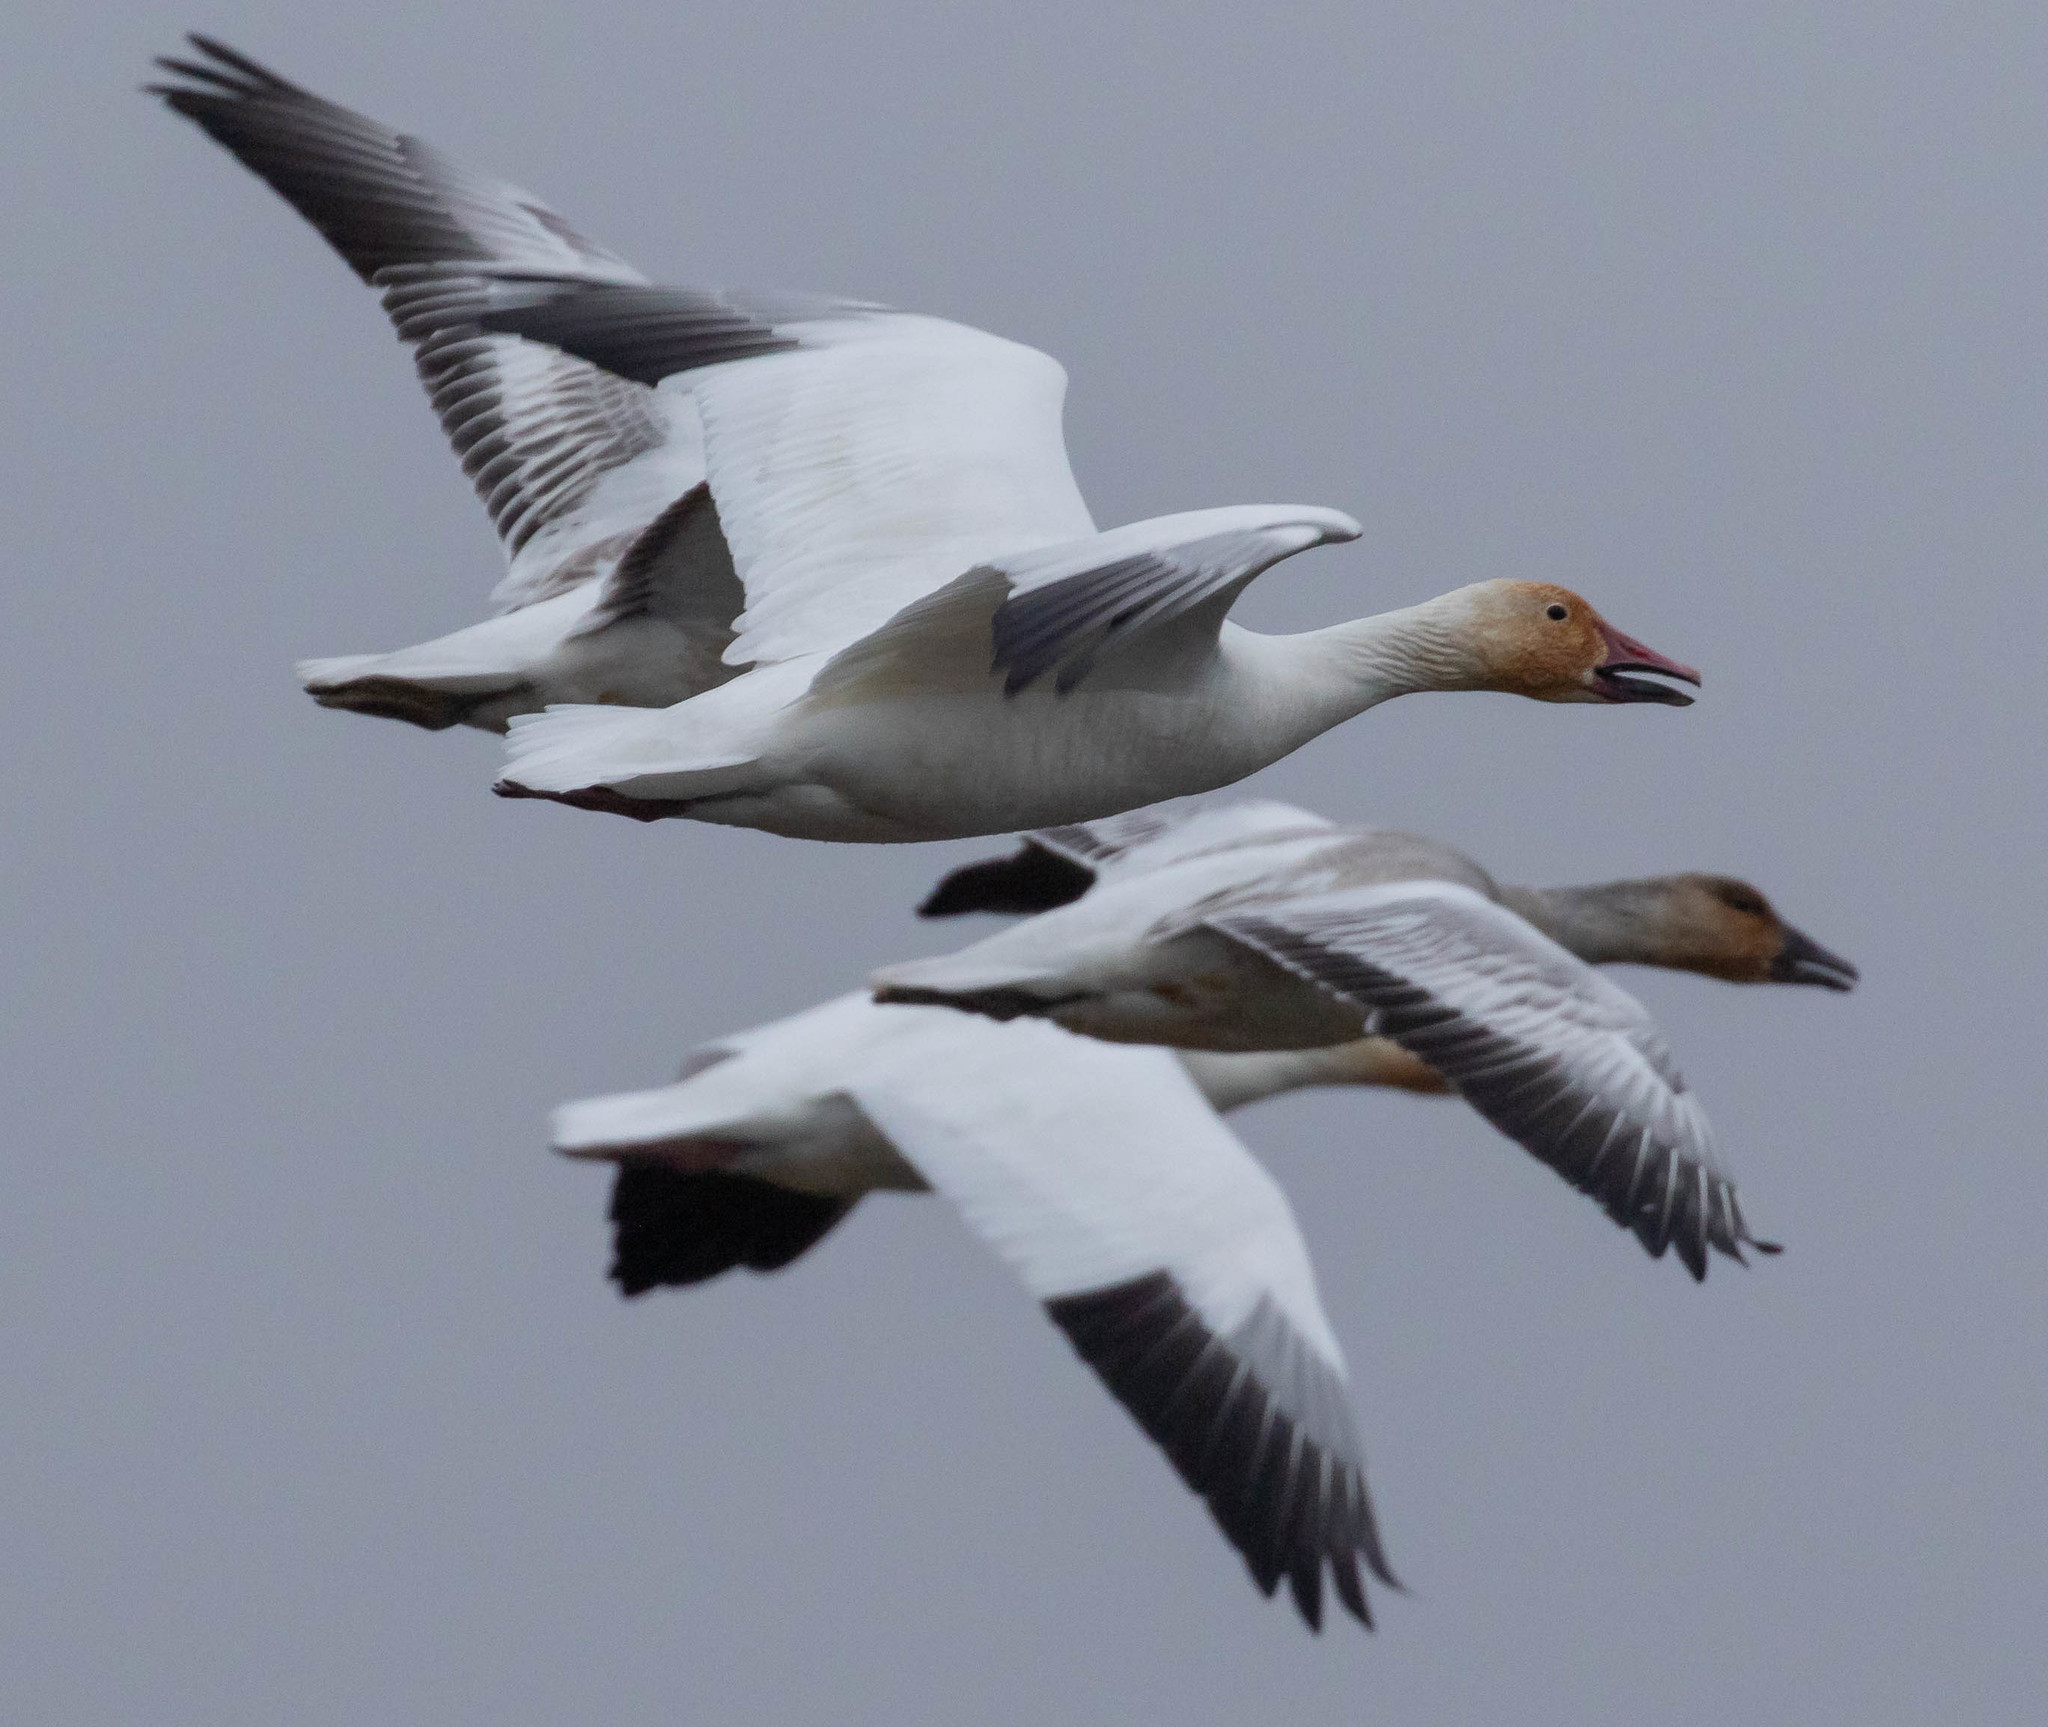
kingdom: Animalia
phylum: Chordata
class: Aves
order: Anseriformes
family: Anatidae
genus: Anser
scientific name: Anser caerulescens
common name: Snow goose
